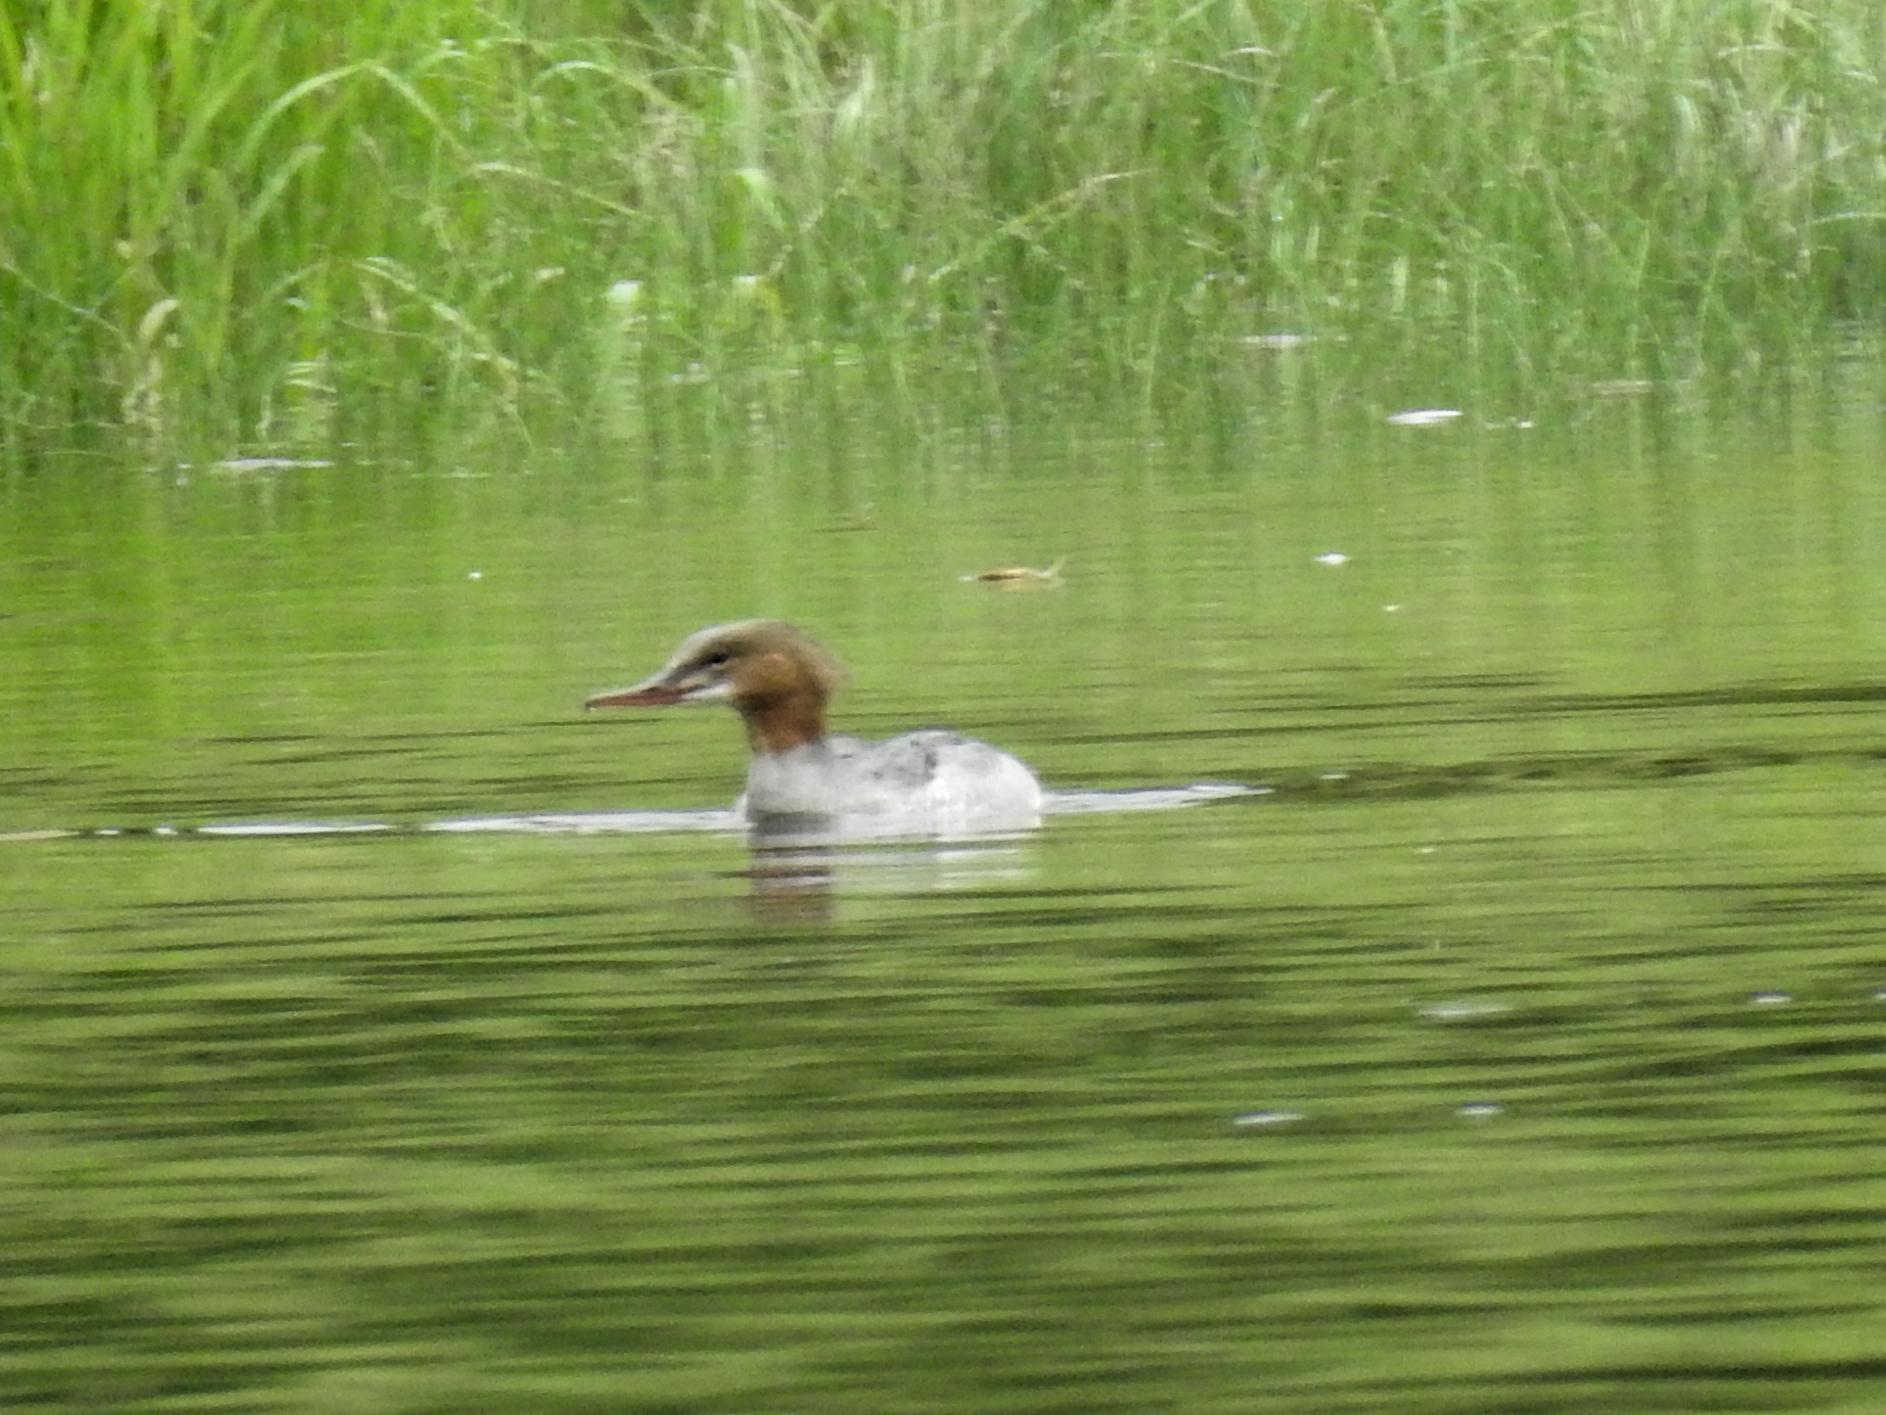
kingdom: Animalia
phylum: Chordata
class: Aves
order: Anseriformes
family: Anatidae
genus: Mergus
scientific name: Mergus merganser
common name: Common merganser
